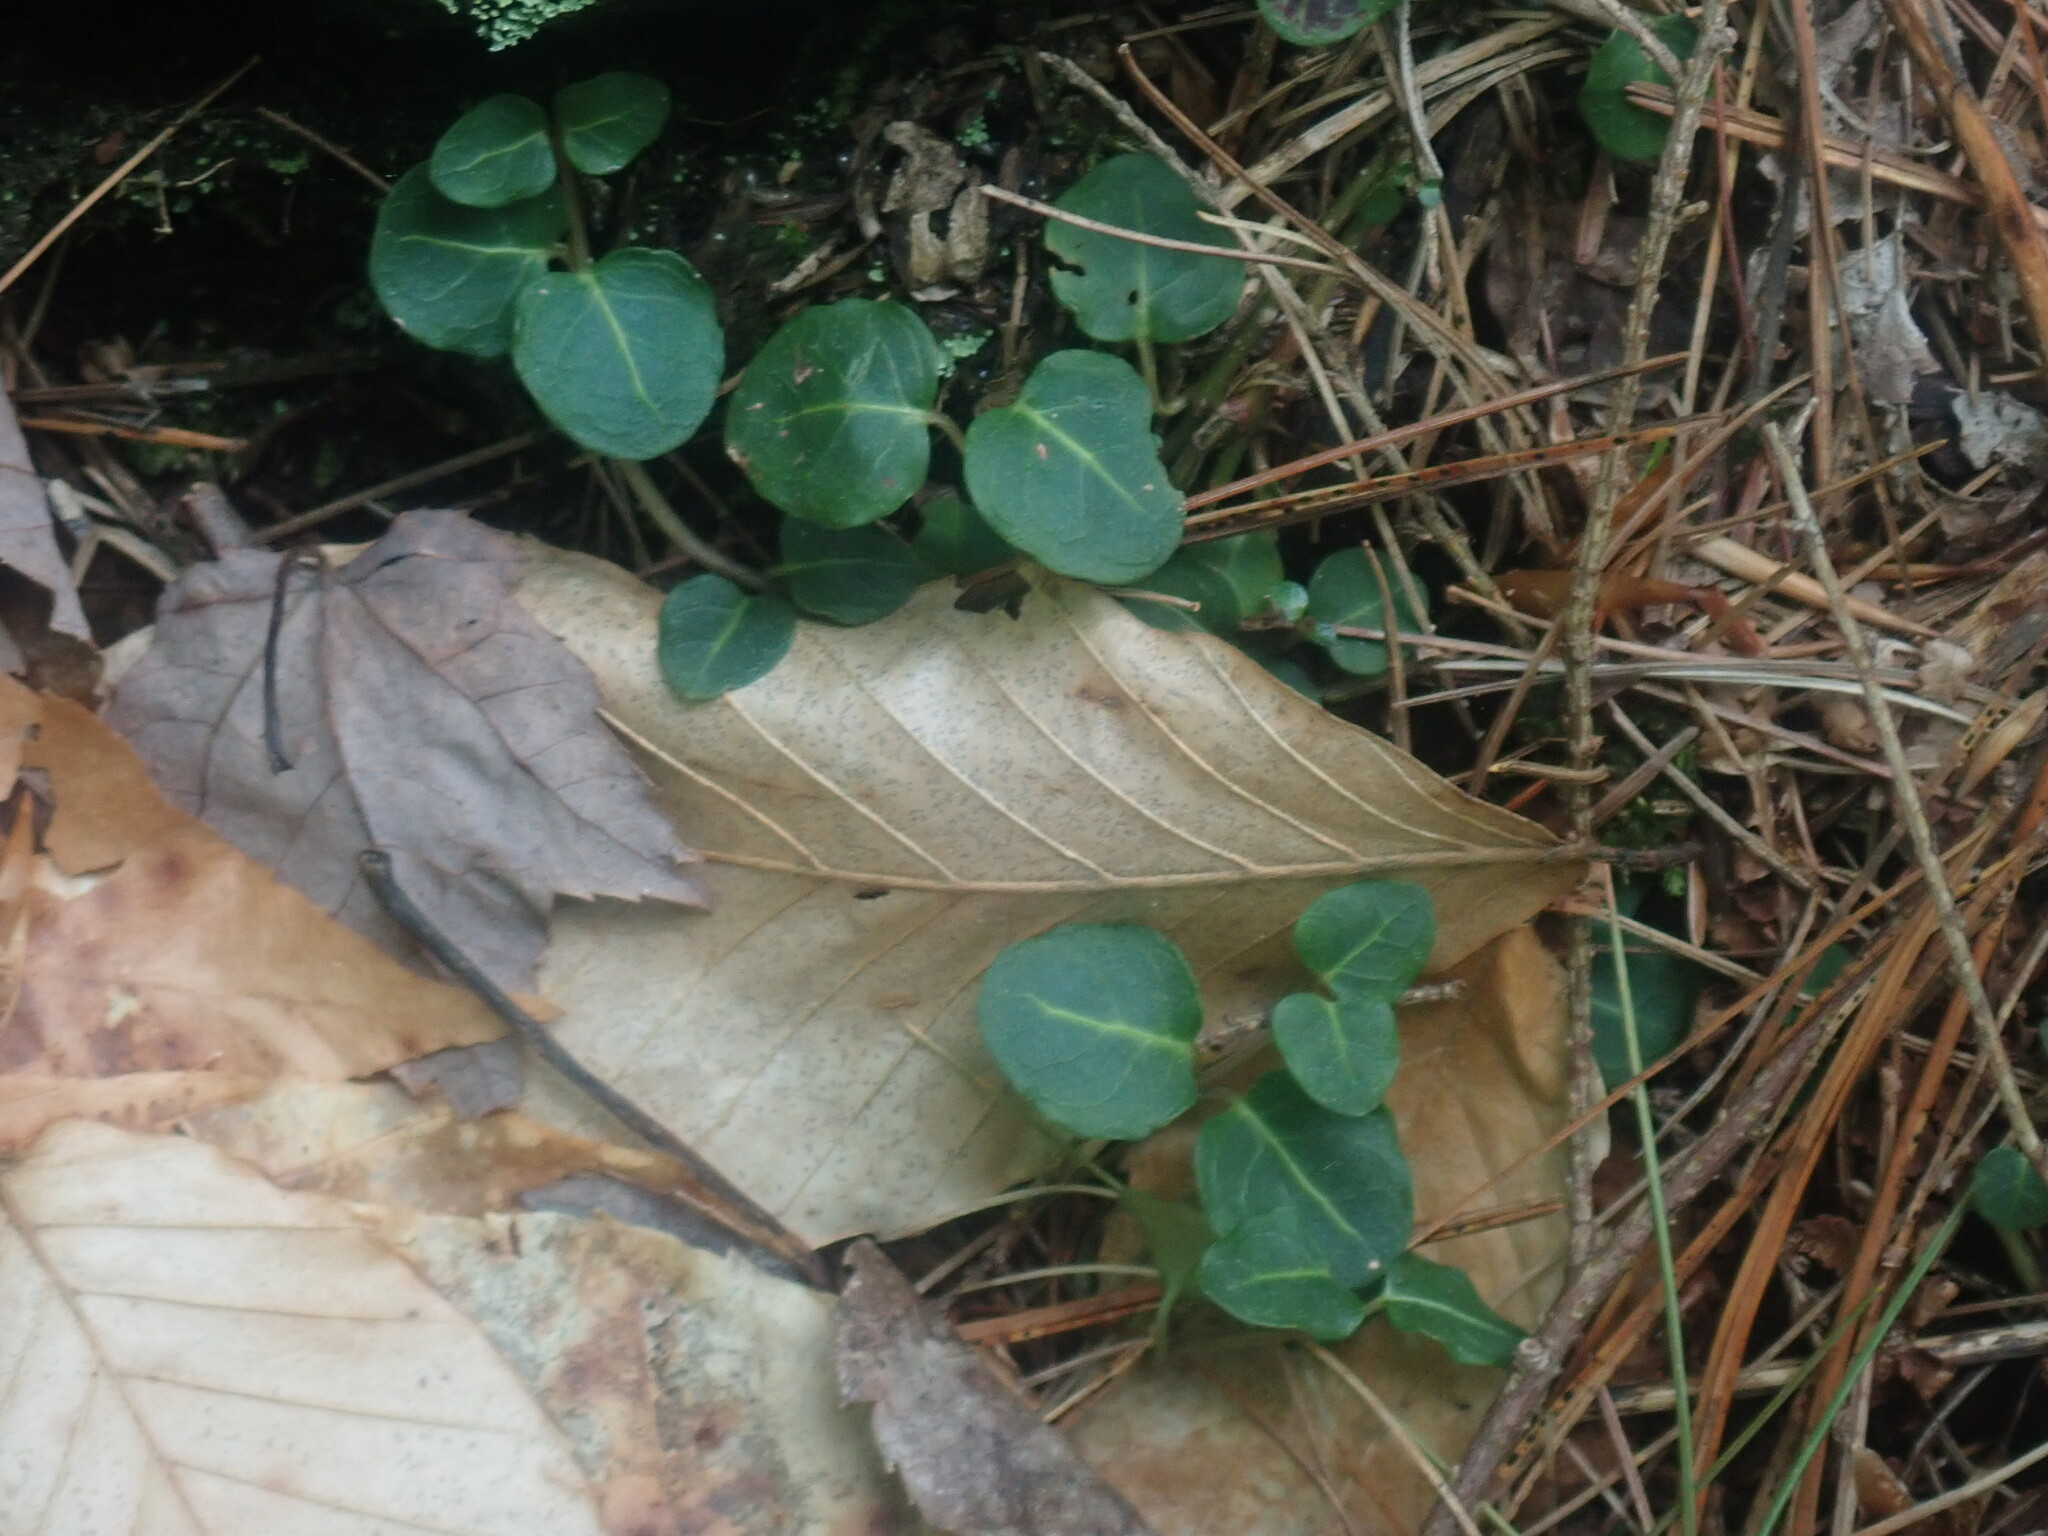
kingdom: Plantae
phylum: Tracheophyta
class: Magnoliopsida
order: Gentianales
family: Rubiaceae
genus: Mitchella
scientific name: Mitchella repens
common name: Partridge-berry
